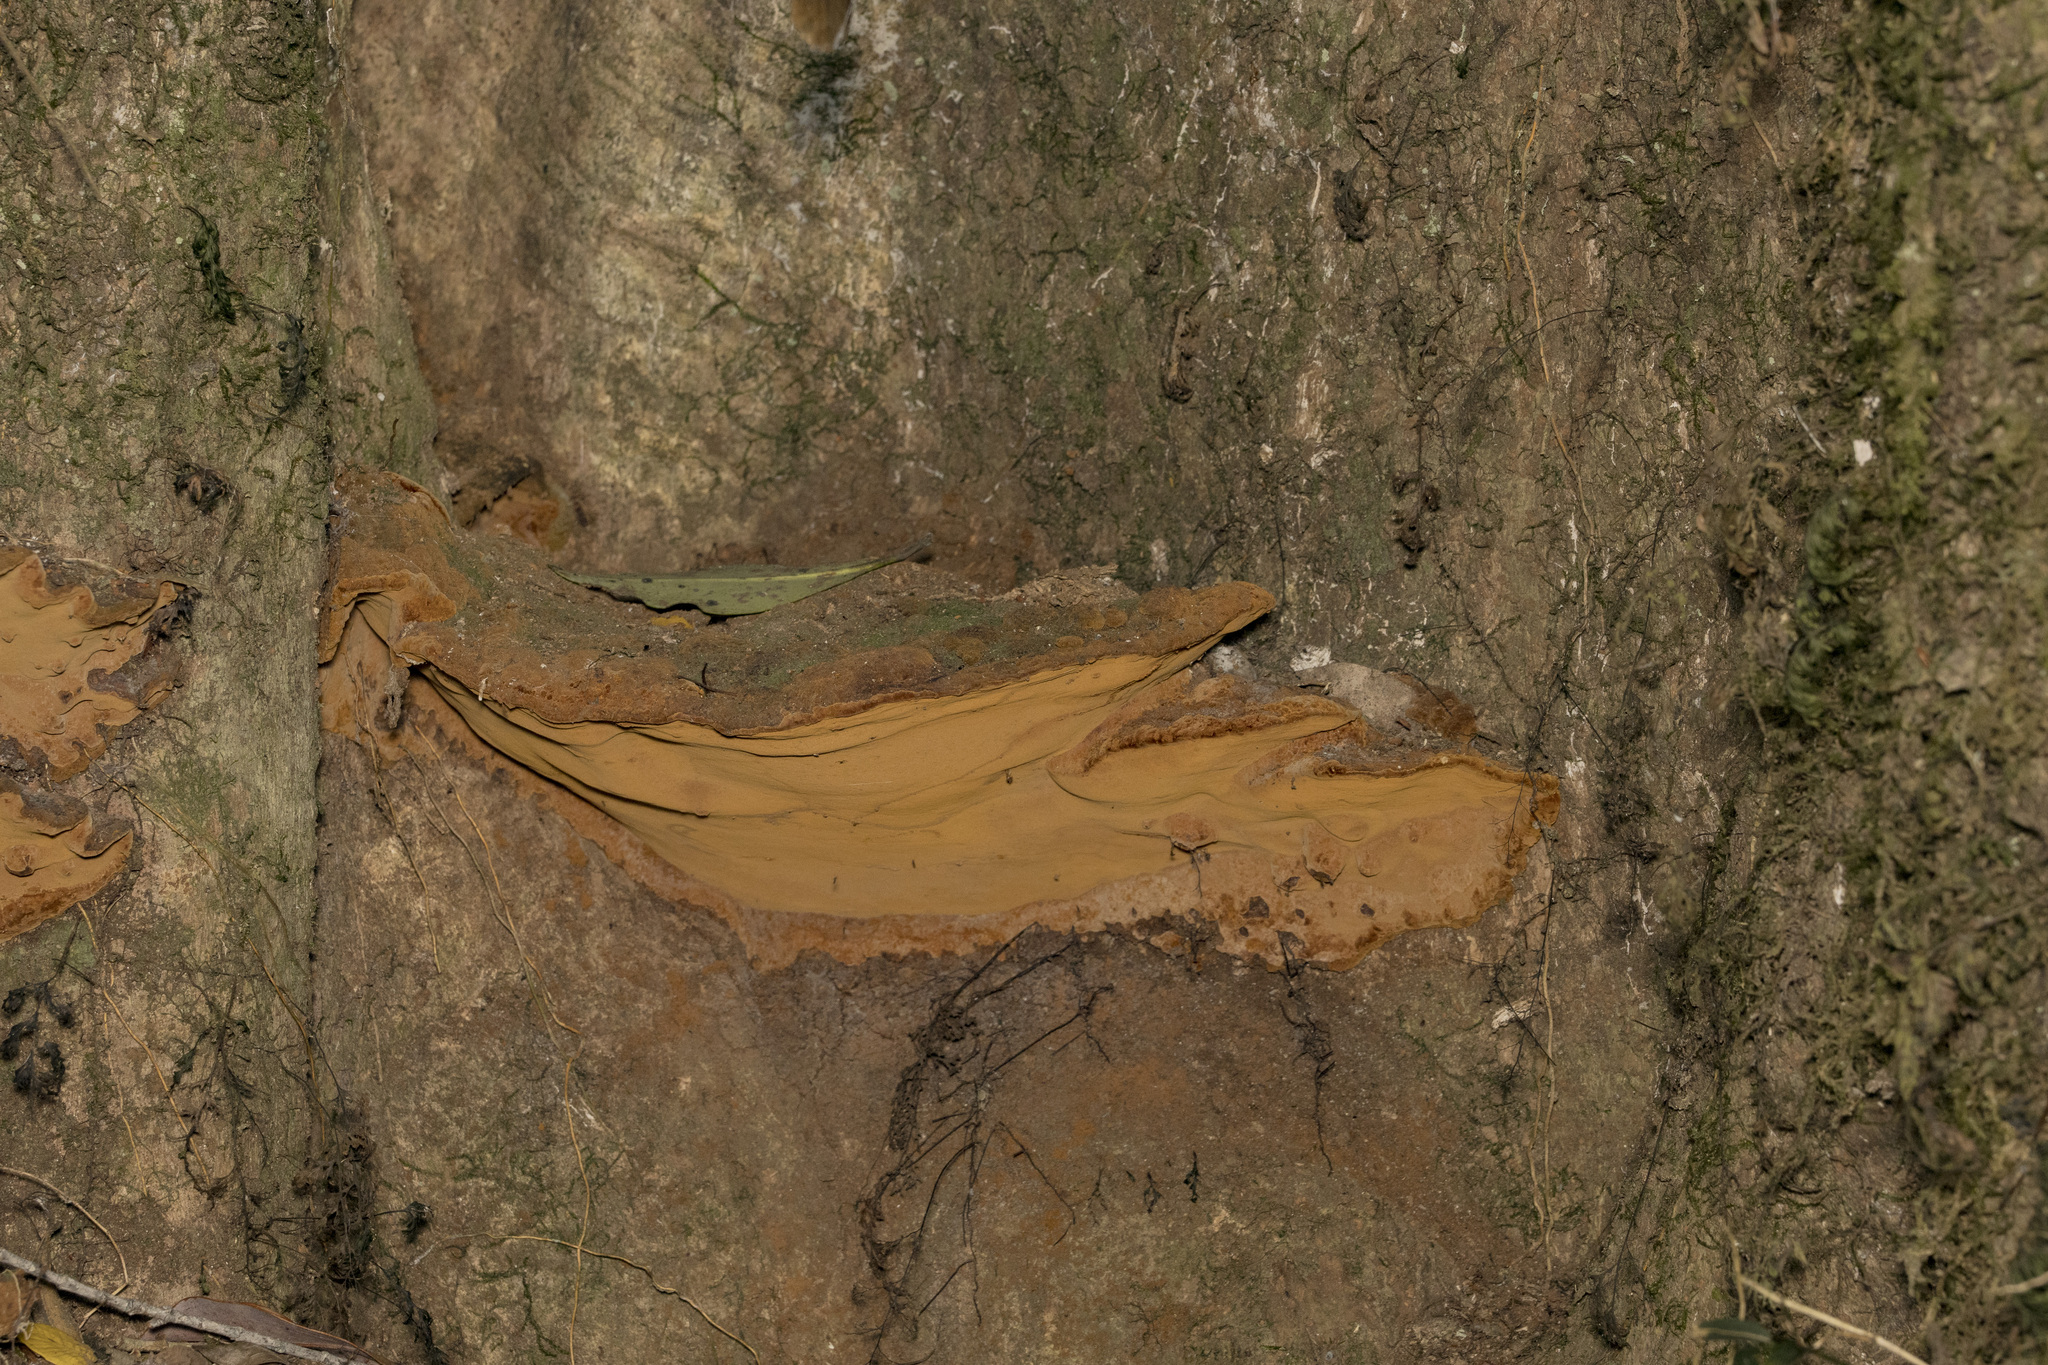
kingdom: Fungi
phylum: Basidiomycota
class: Agaricomycetes
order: Hymenochaetales
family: Hymenochaetaceae
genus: Fuscoporia
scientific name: Fuscoporia senex
